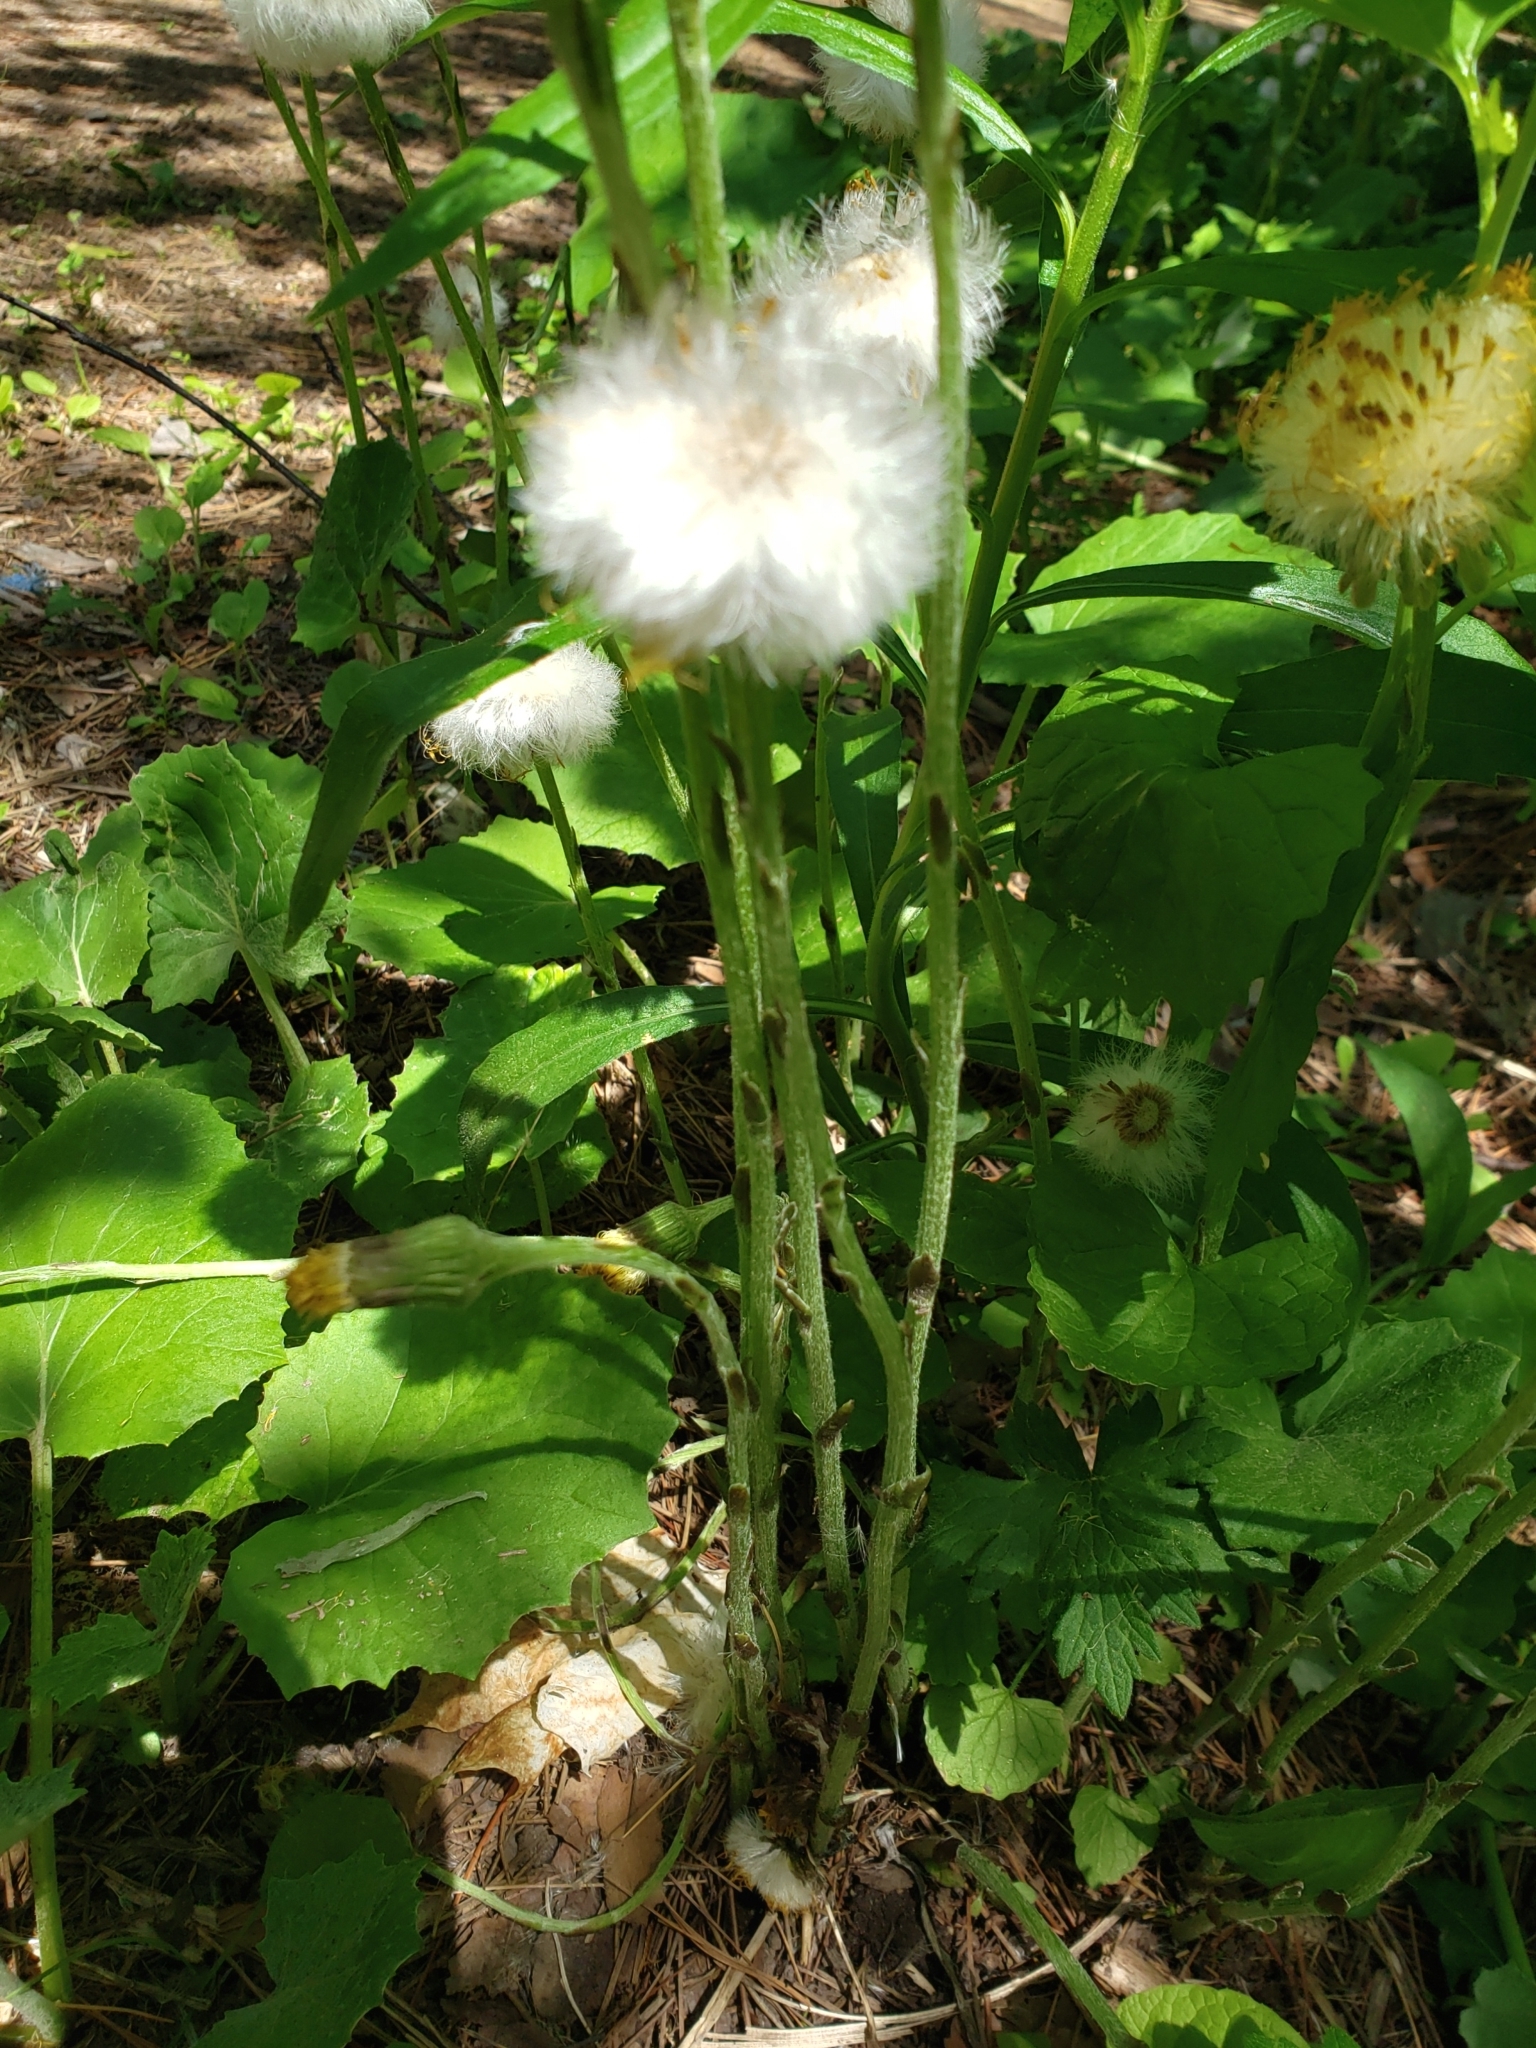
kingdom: Plantae
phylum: Tracheophyta
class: Magnoliopsida
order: Asterales
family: Asteraceae
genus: Tussilago
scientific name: Tussilago farfara
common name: Coltsfoot
